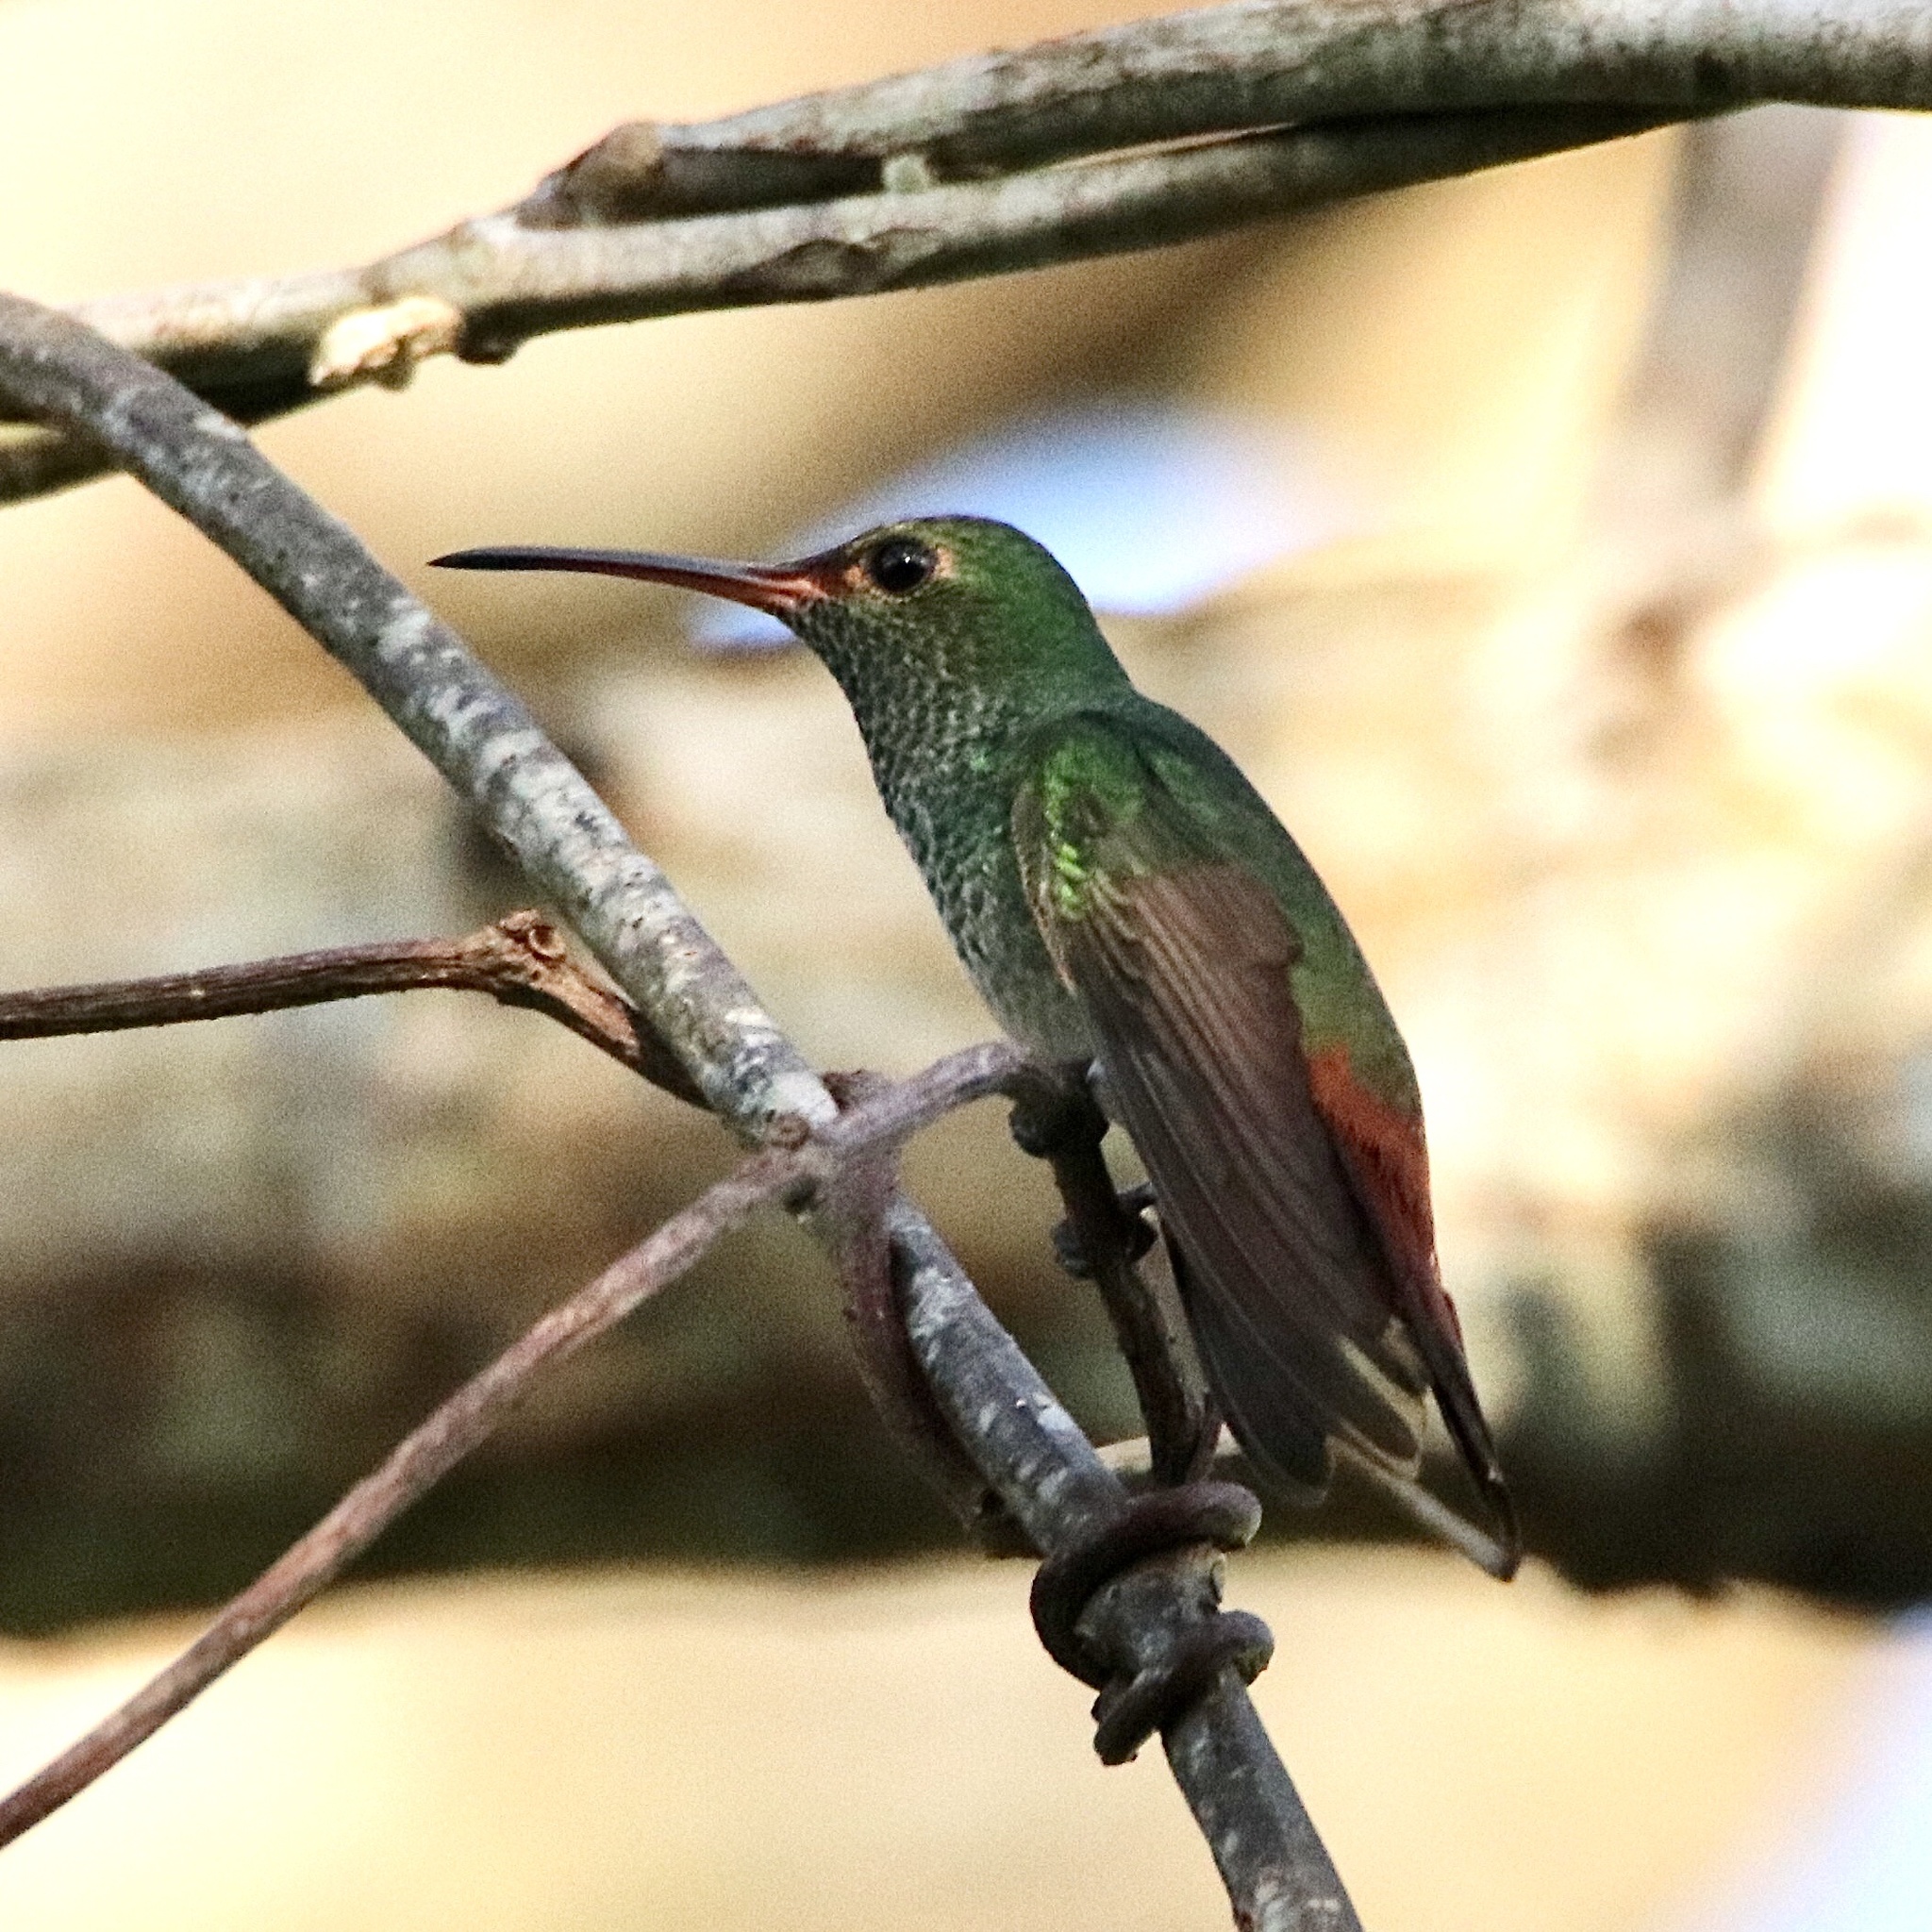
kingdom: Animalia
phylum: Chordata
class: Aves
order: Apodiformes
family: Trochilidae
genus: Amazilia
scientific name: Amazilia tzacatl
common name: Rufous-tailed hummingbird
